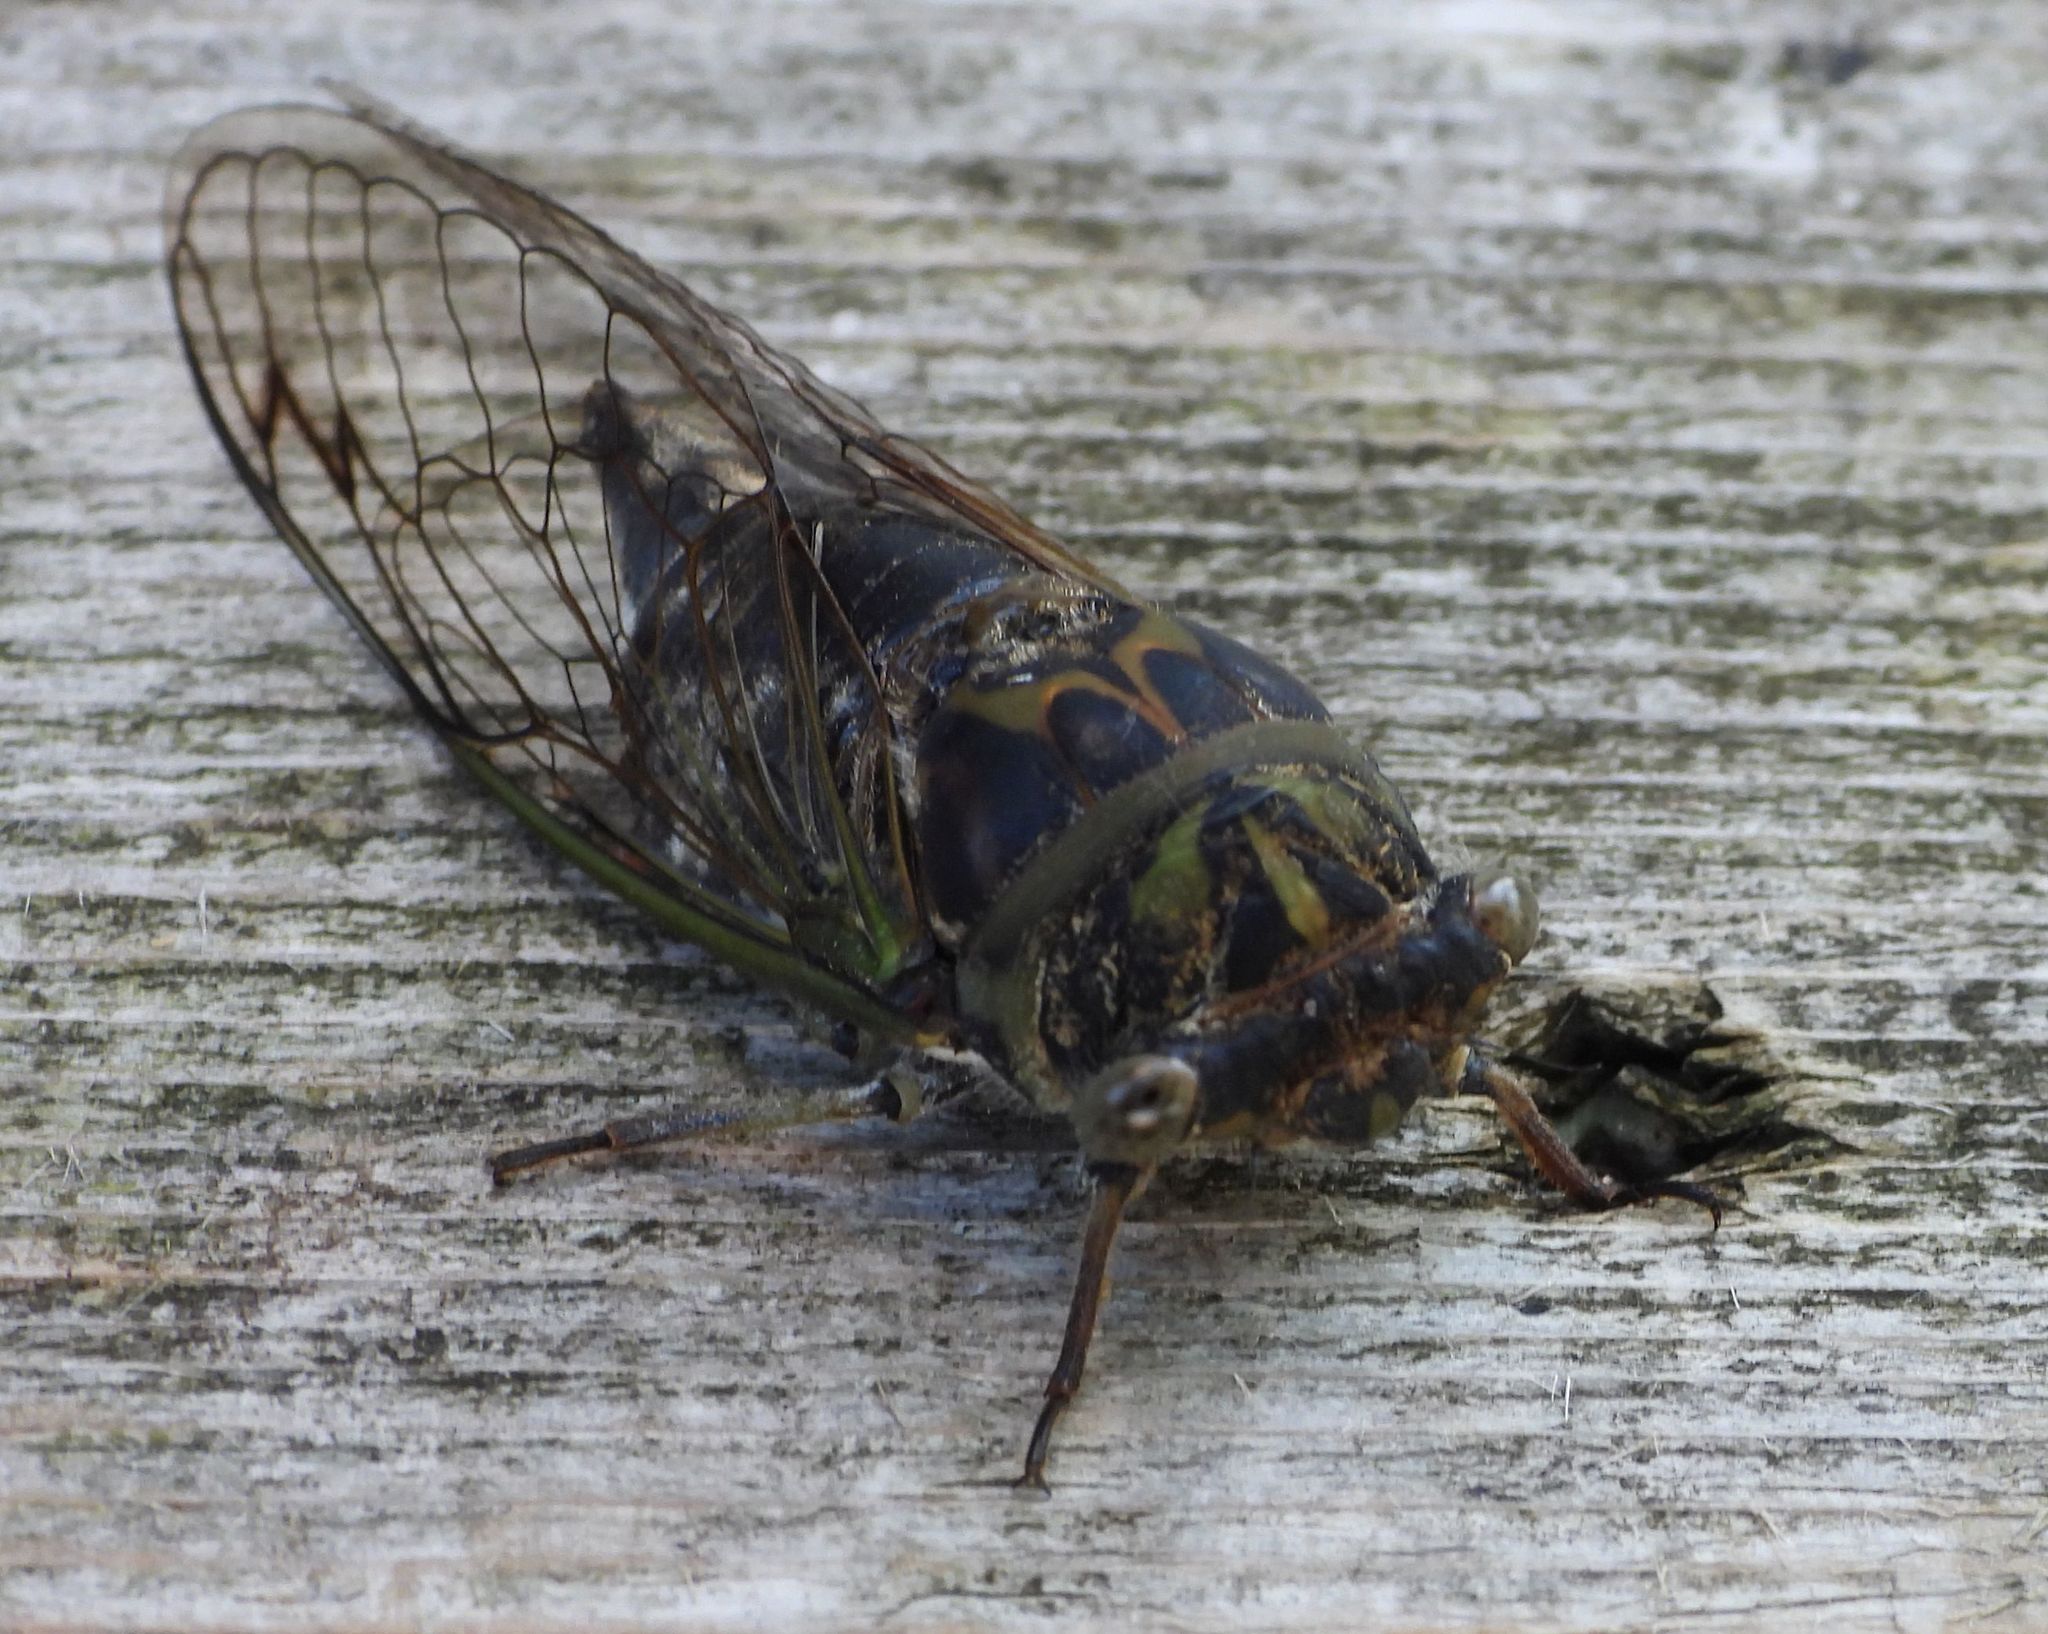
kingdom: Animalia
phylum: Arthropoda
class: Insecta
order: Hemiptera
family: Cicadidae
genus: Neotibicen
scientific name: Neotibicen canicularis
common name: God-day cicada
